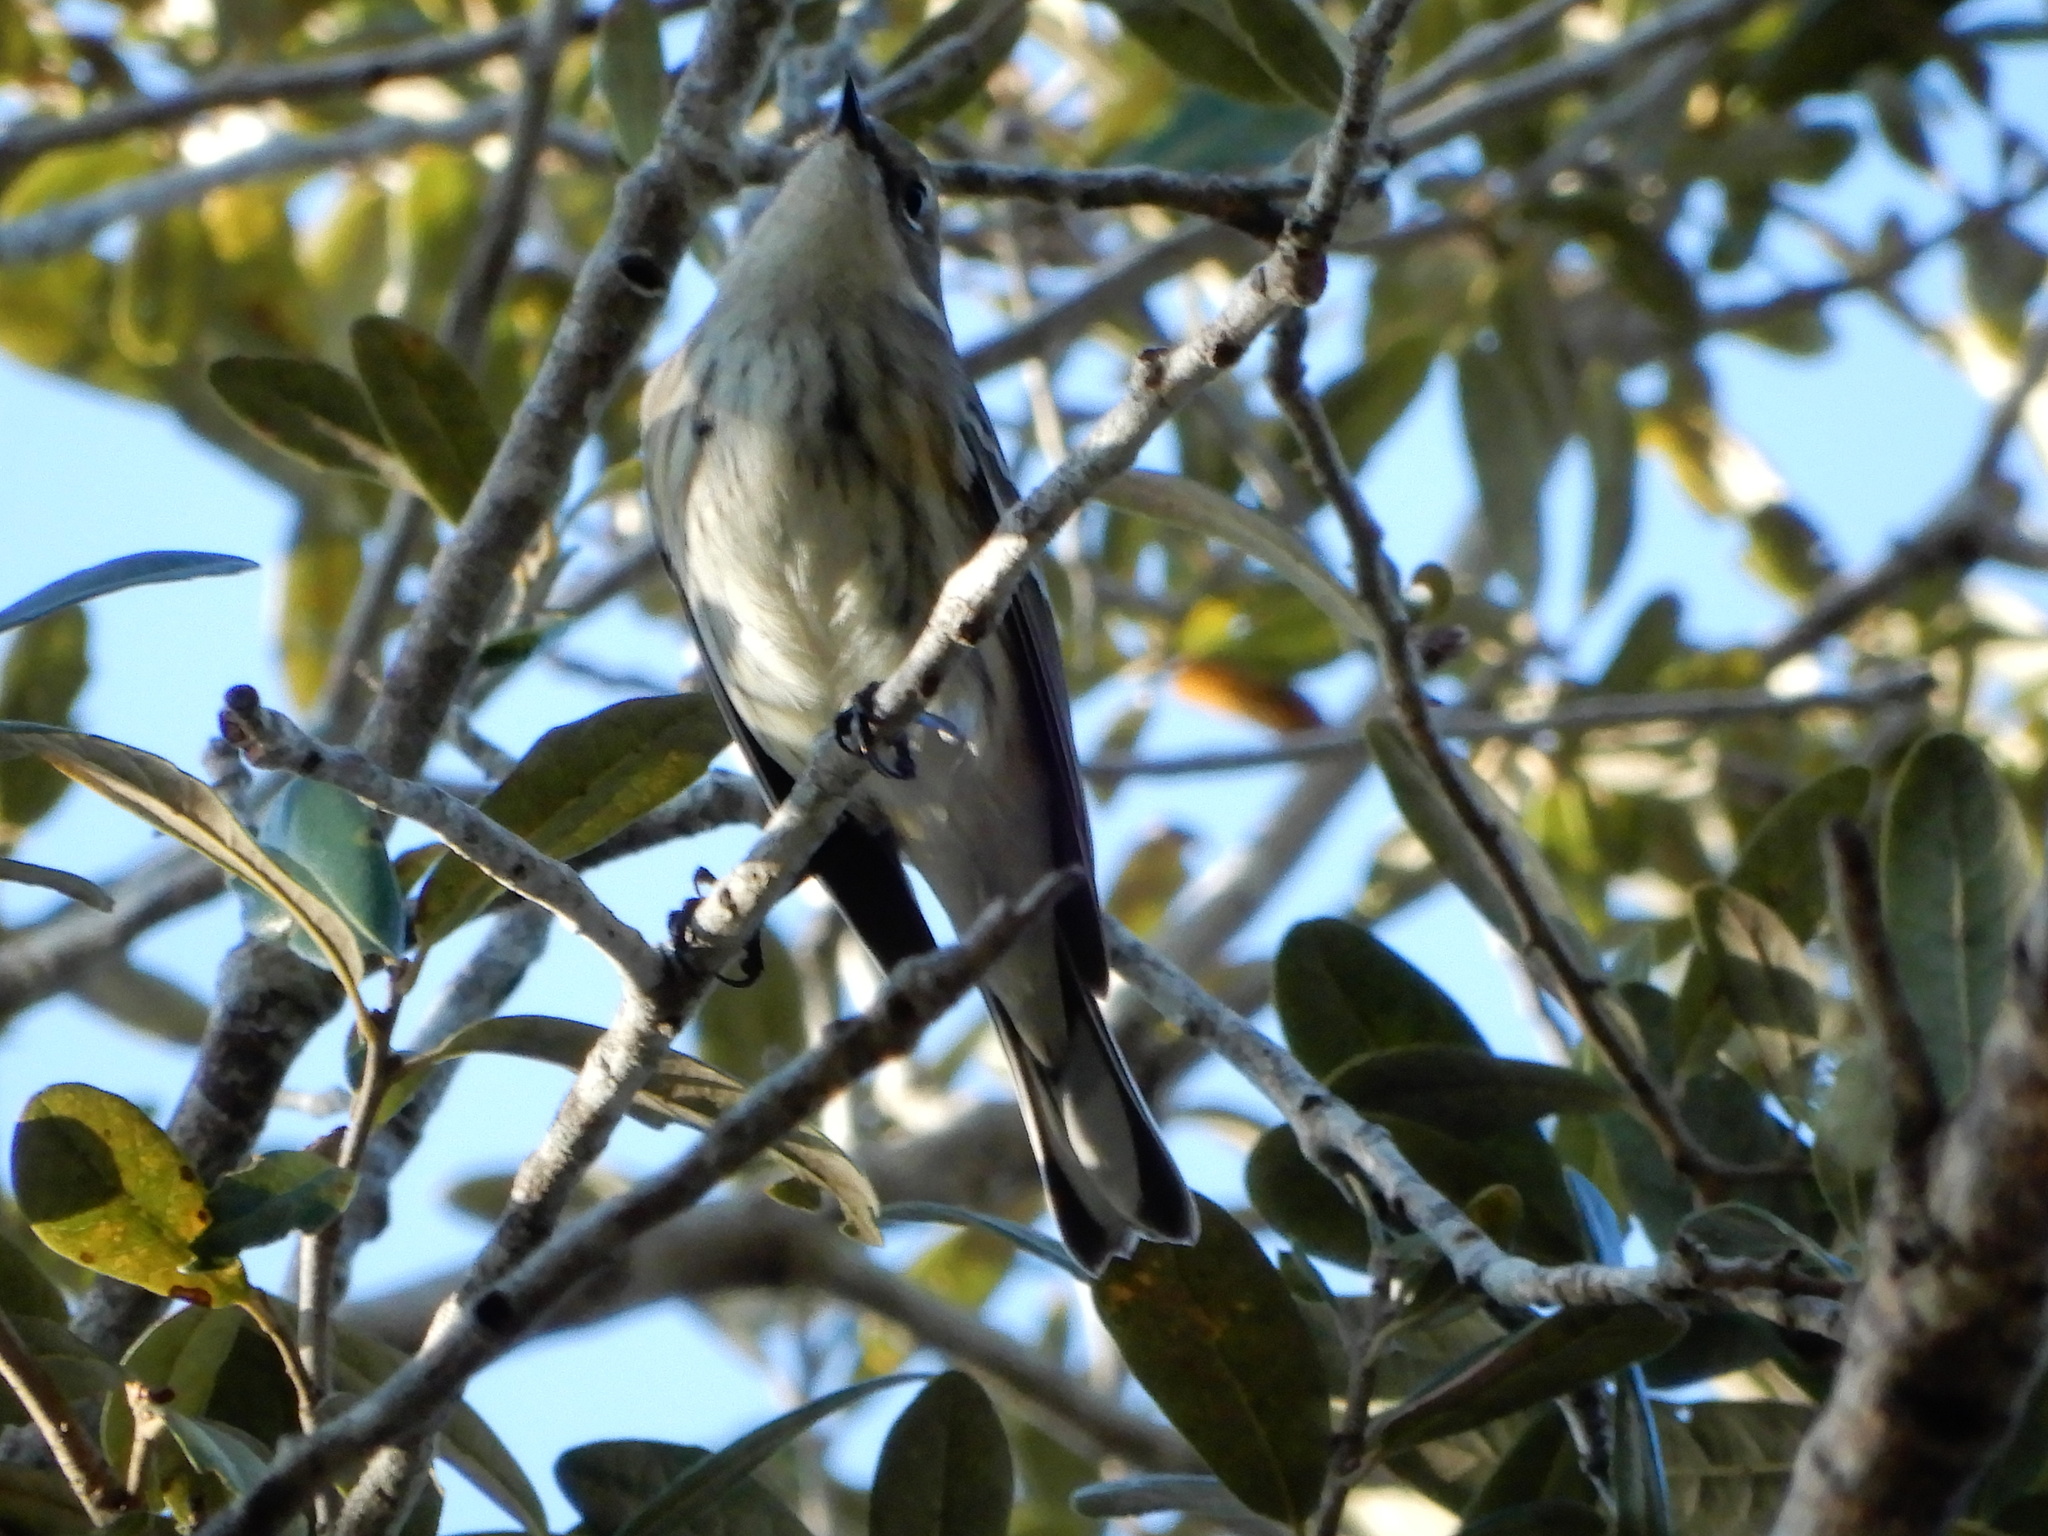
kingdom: Animalia
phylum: Chordata
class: Aves
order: Passeriformes
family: Parulidae
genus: Setophaga
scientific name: Setophaga coronata
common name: Myrtle warbler
